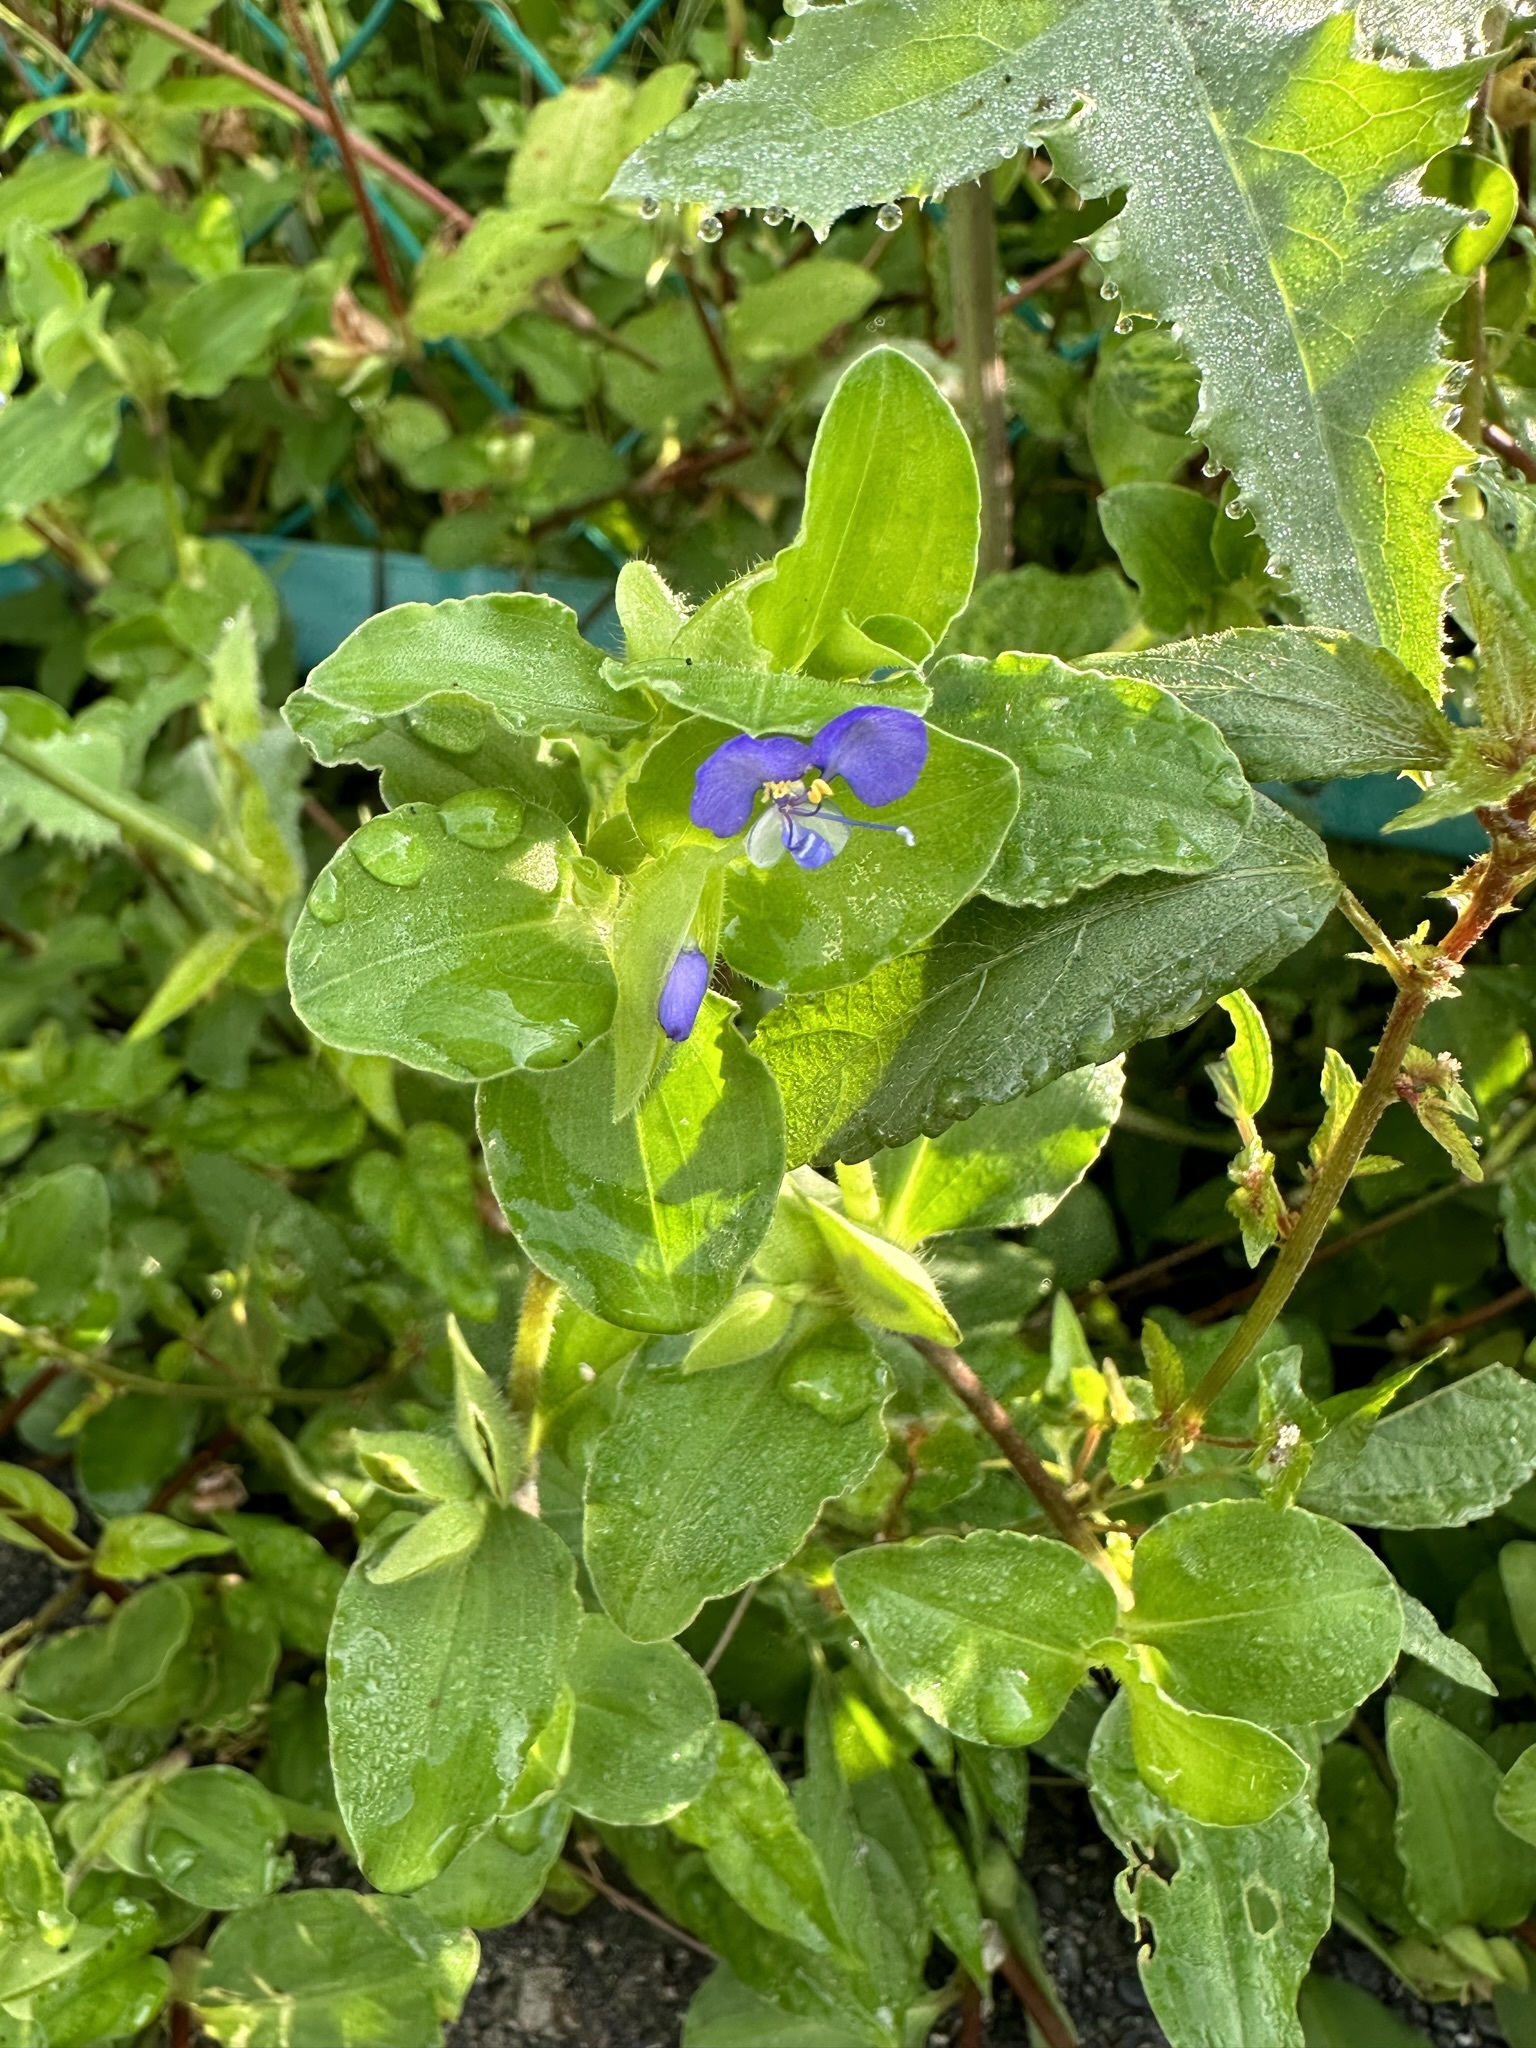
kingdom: Plantae
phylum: Tracheophyta
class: Liliopsida
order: Commelinales
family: Commelinaceae
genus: Commelina
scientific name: Commelina benghalensis
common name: Jio
